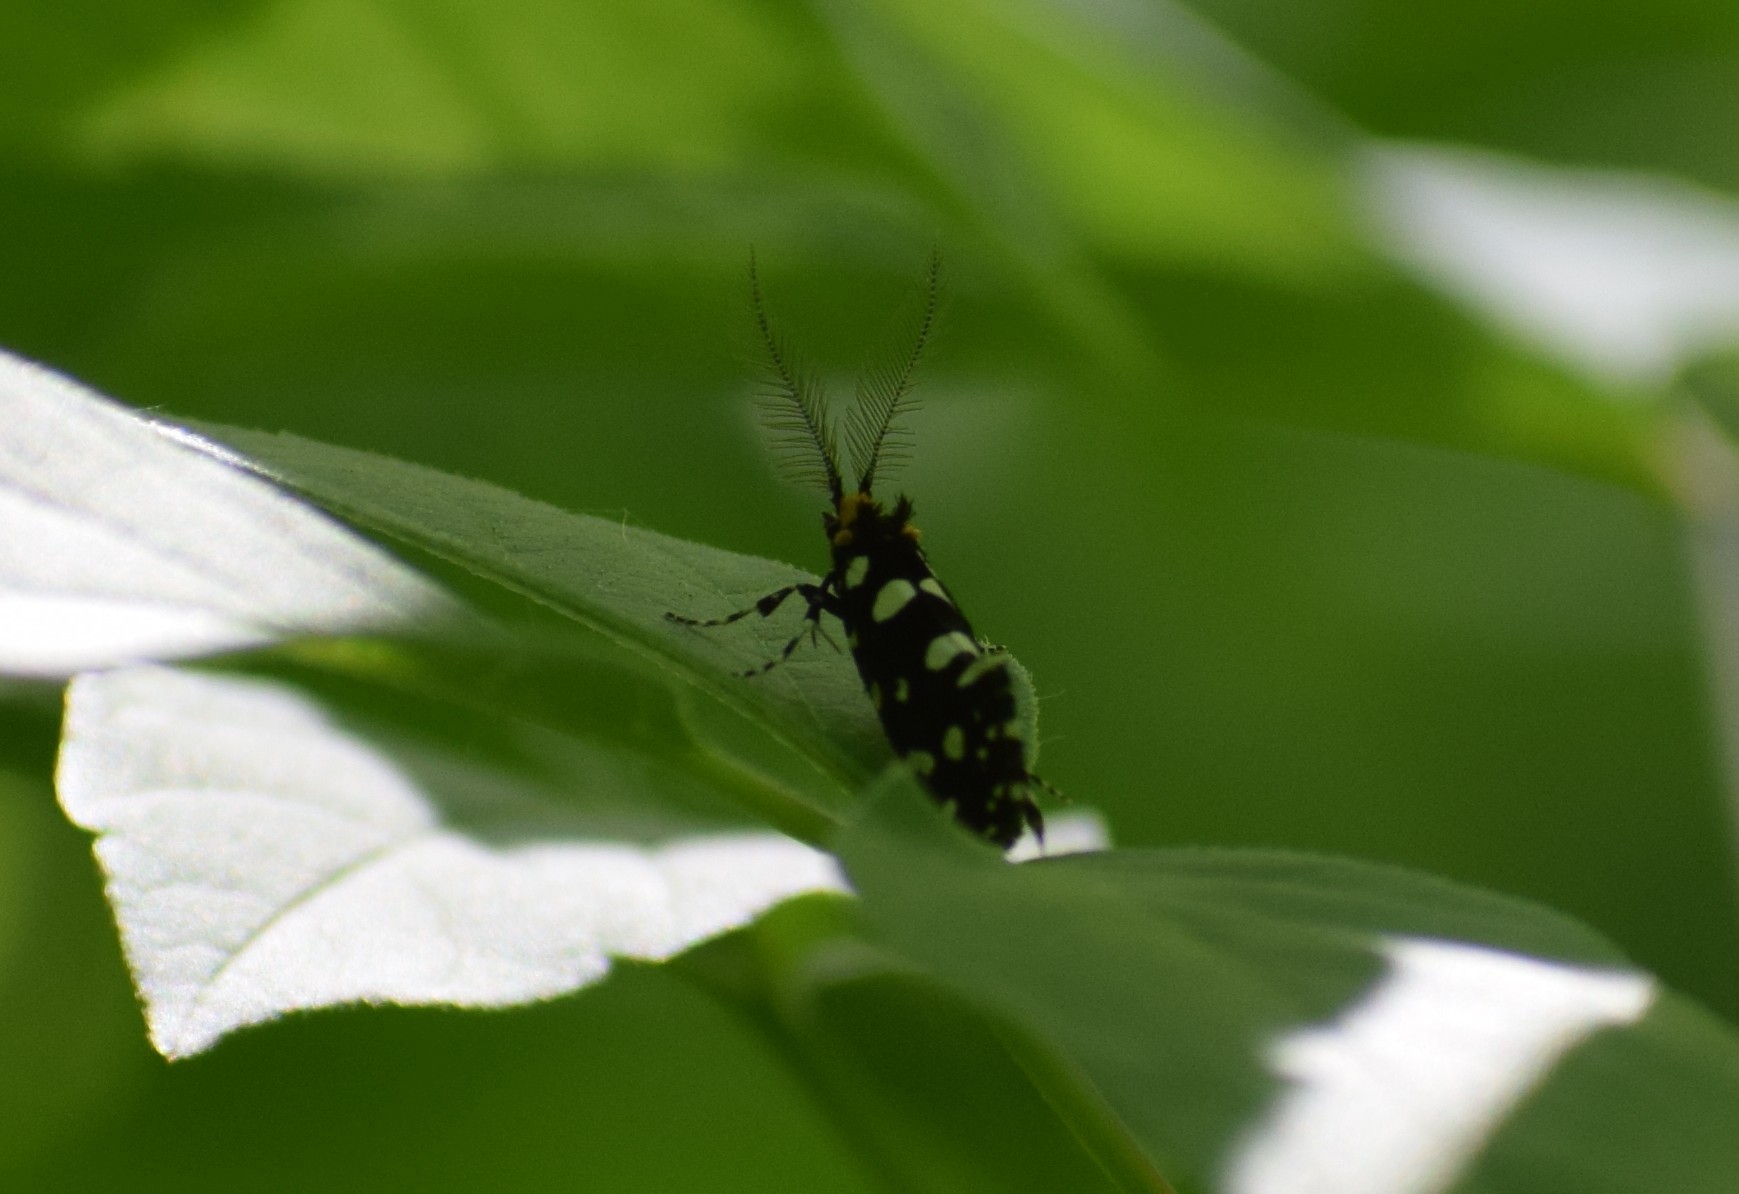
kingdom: Animalia
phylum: Arthropoda
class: Insecta
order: Lepidoptera
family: Tineidae
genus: Euplocamus
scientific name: Euplocamus anthracinalis
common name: Black clothes
